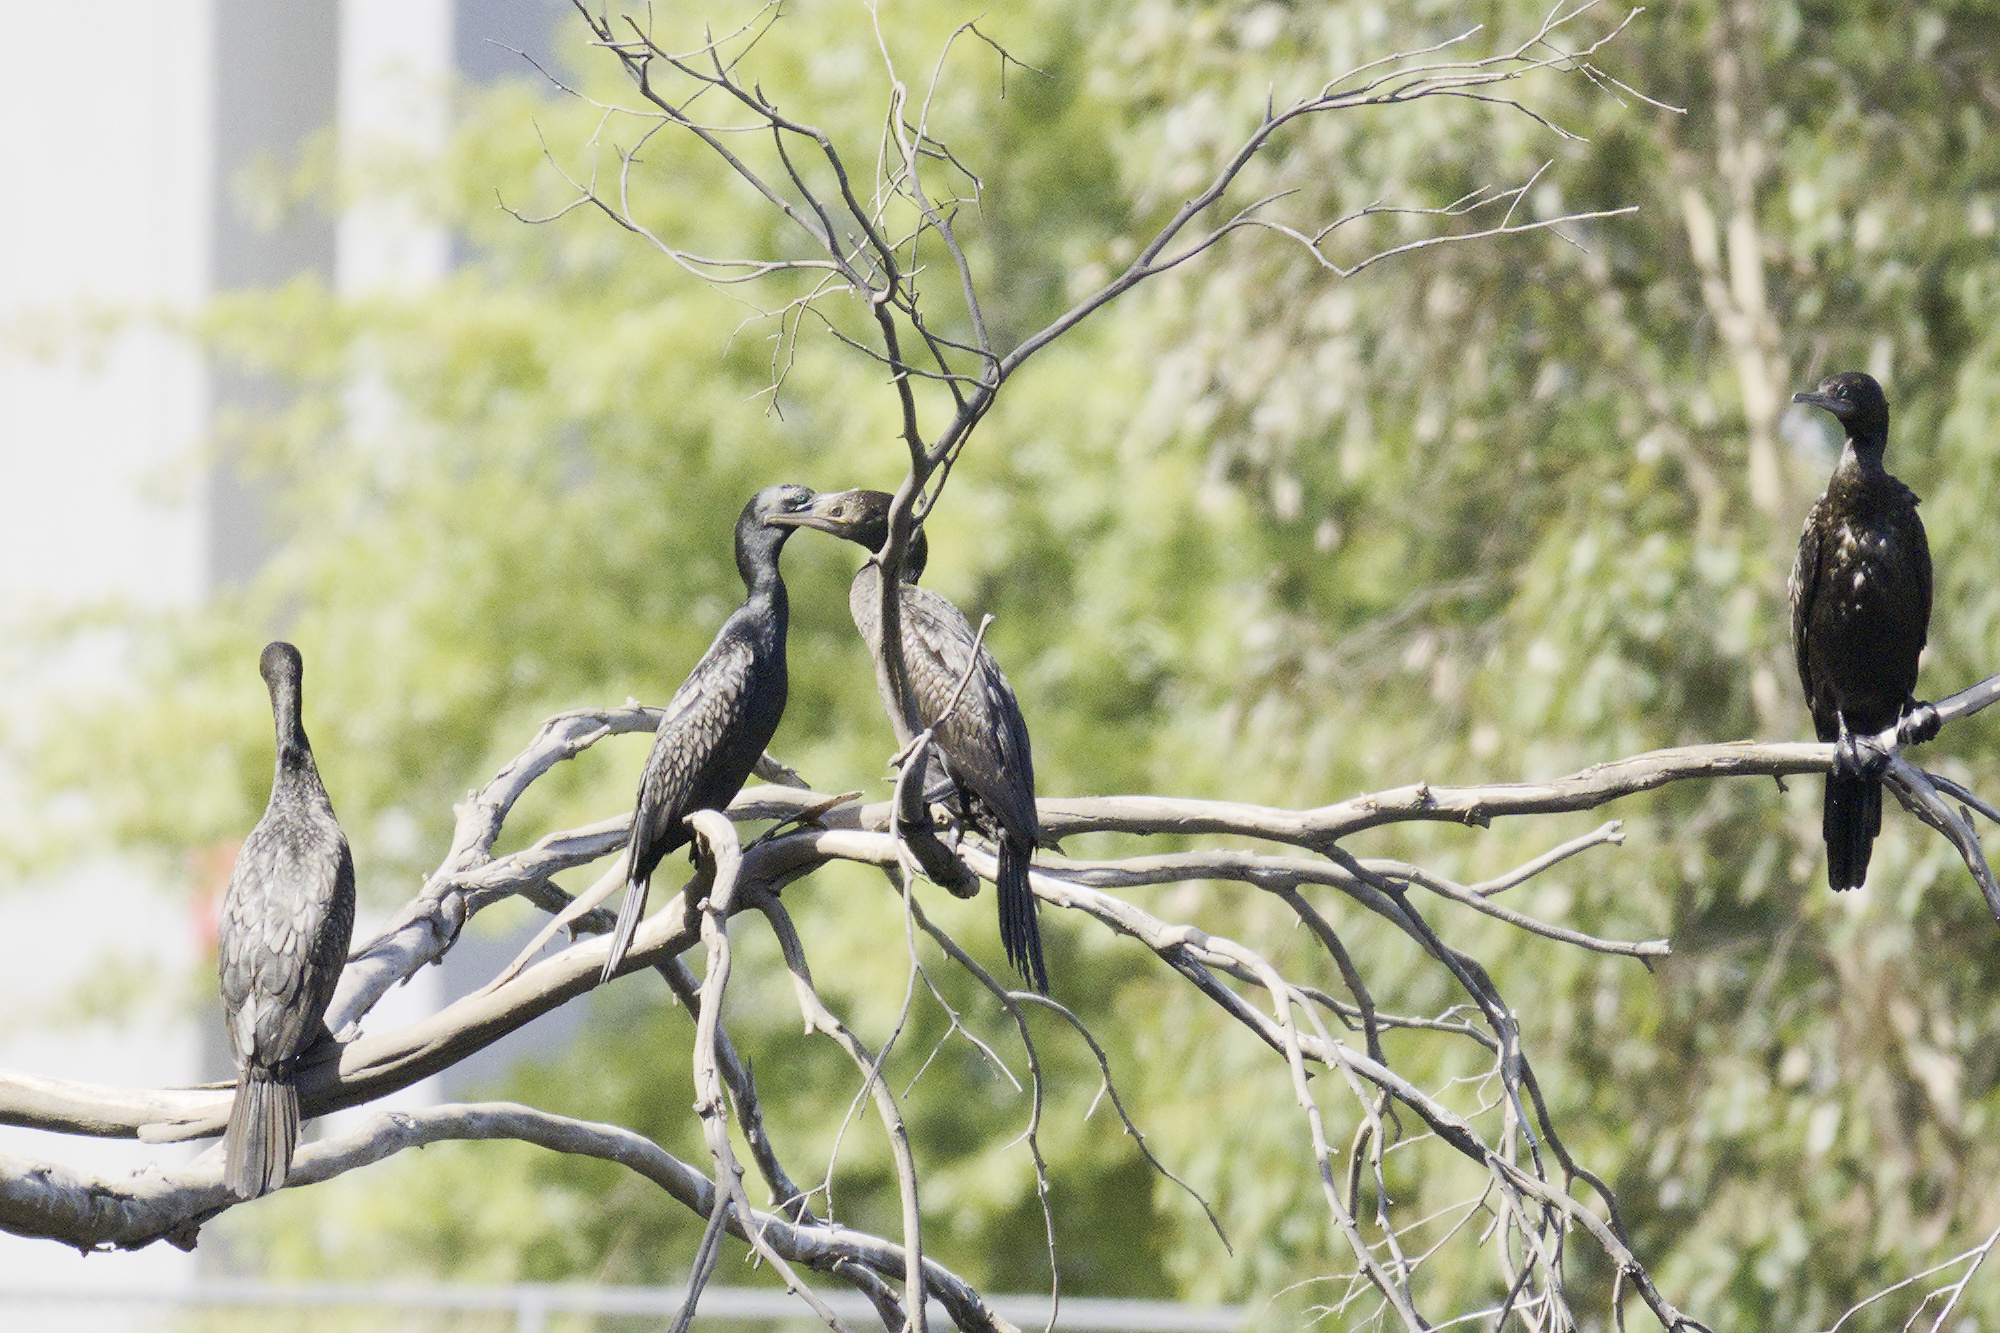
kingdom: Animalia
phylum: Chordata
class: Aves
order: Suliformes
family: Phalacrocoracidae
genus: Phalacrocorax
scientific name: Phalacrocorax sulcirostris
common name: Little black cormorant
